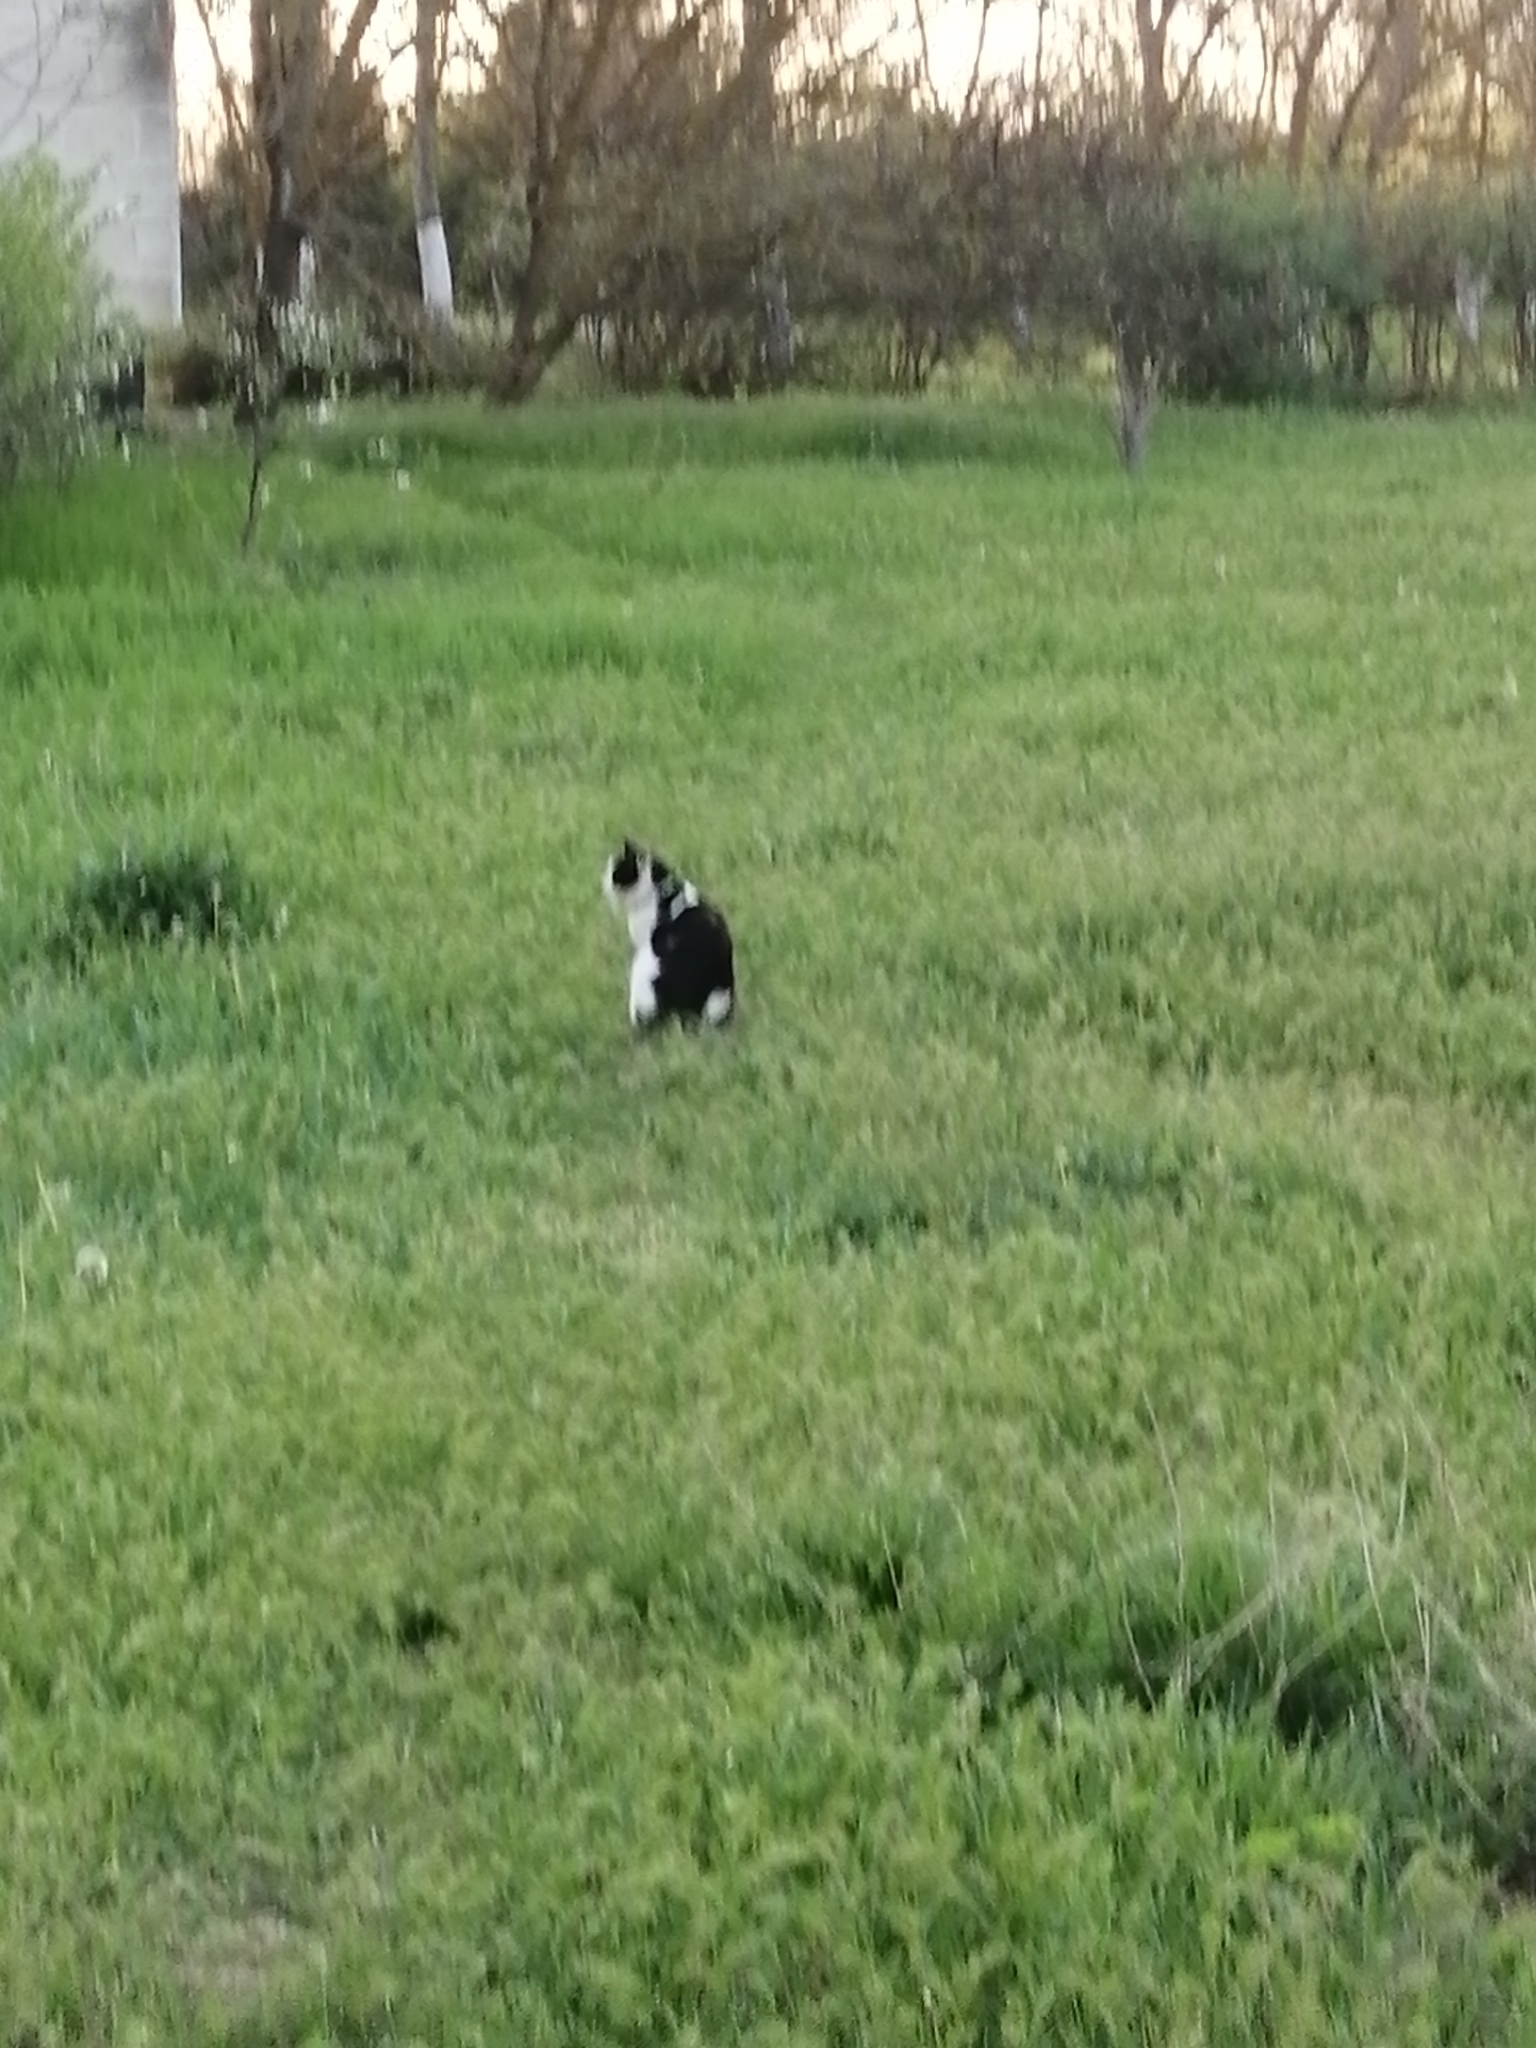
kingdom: Animalia
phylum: Chordata
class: Mammalia
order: Carnivora
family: Felidae
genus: Felis
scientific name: Felis catus
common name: Domestic cat
